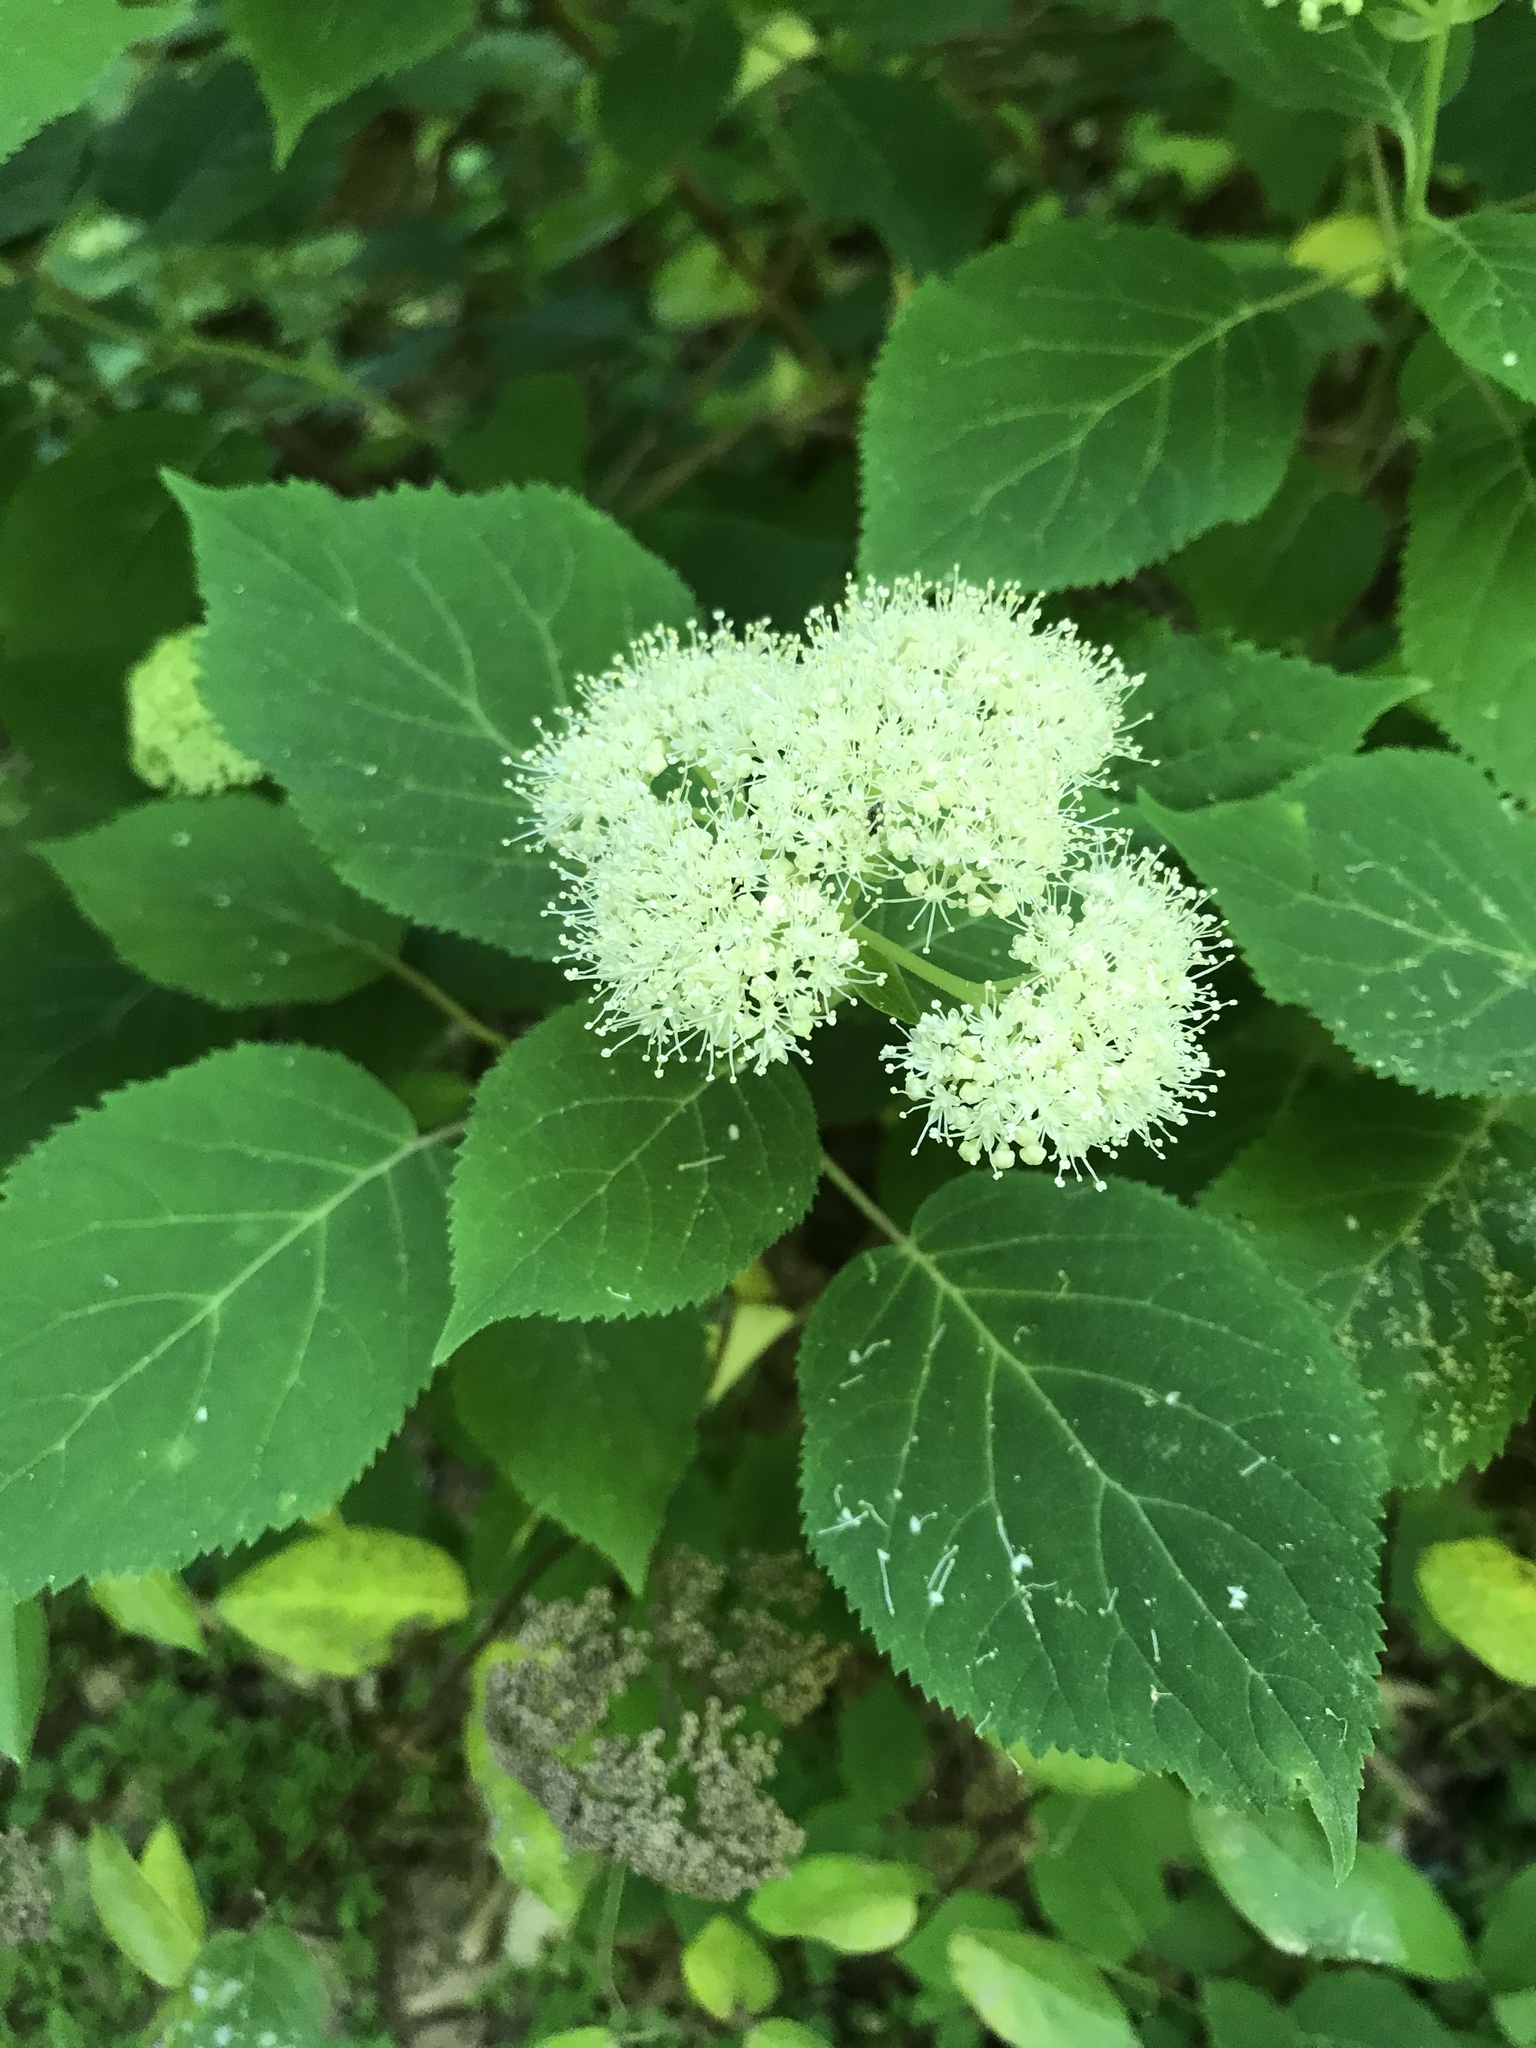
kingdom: Plantae
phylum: Tracheophyta
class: Magnoliopsida
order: Cornales
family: Hydrangeaceae
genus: Hydrangea
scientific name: Hydrangea arborescens
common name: Sevenbark
